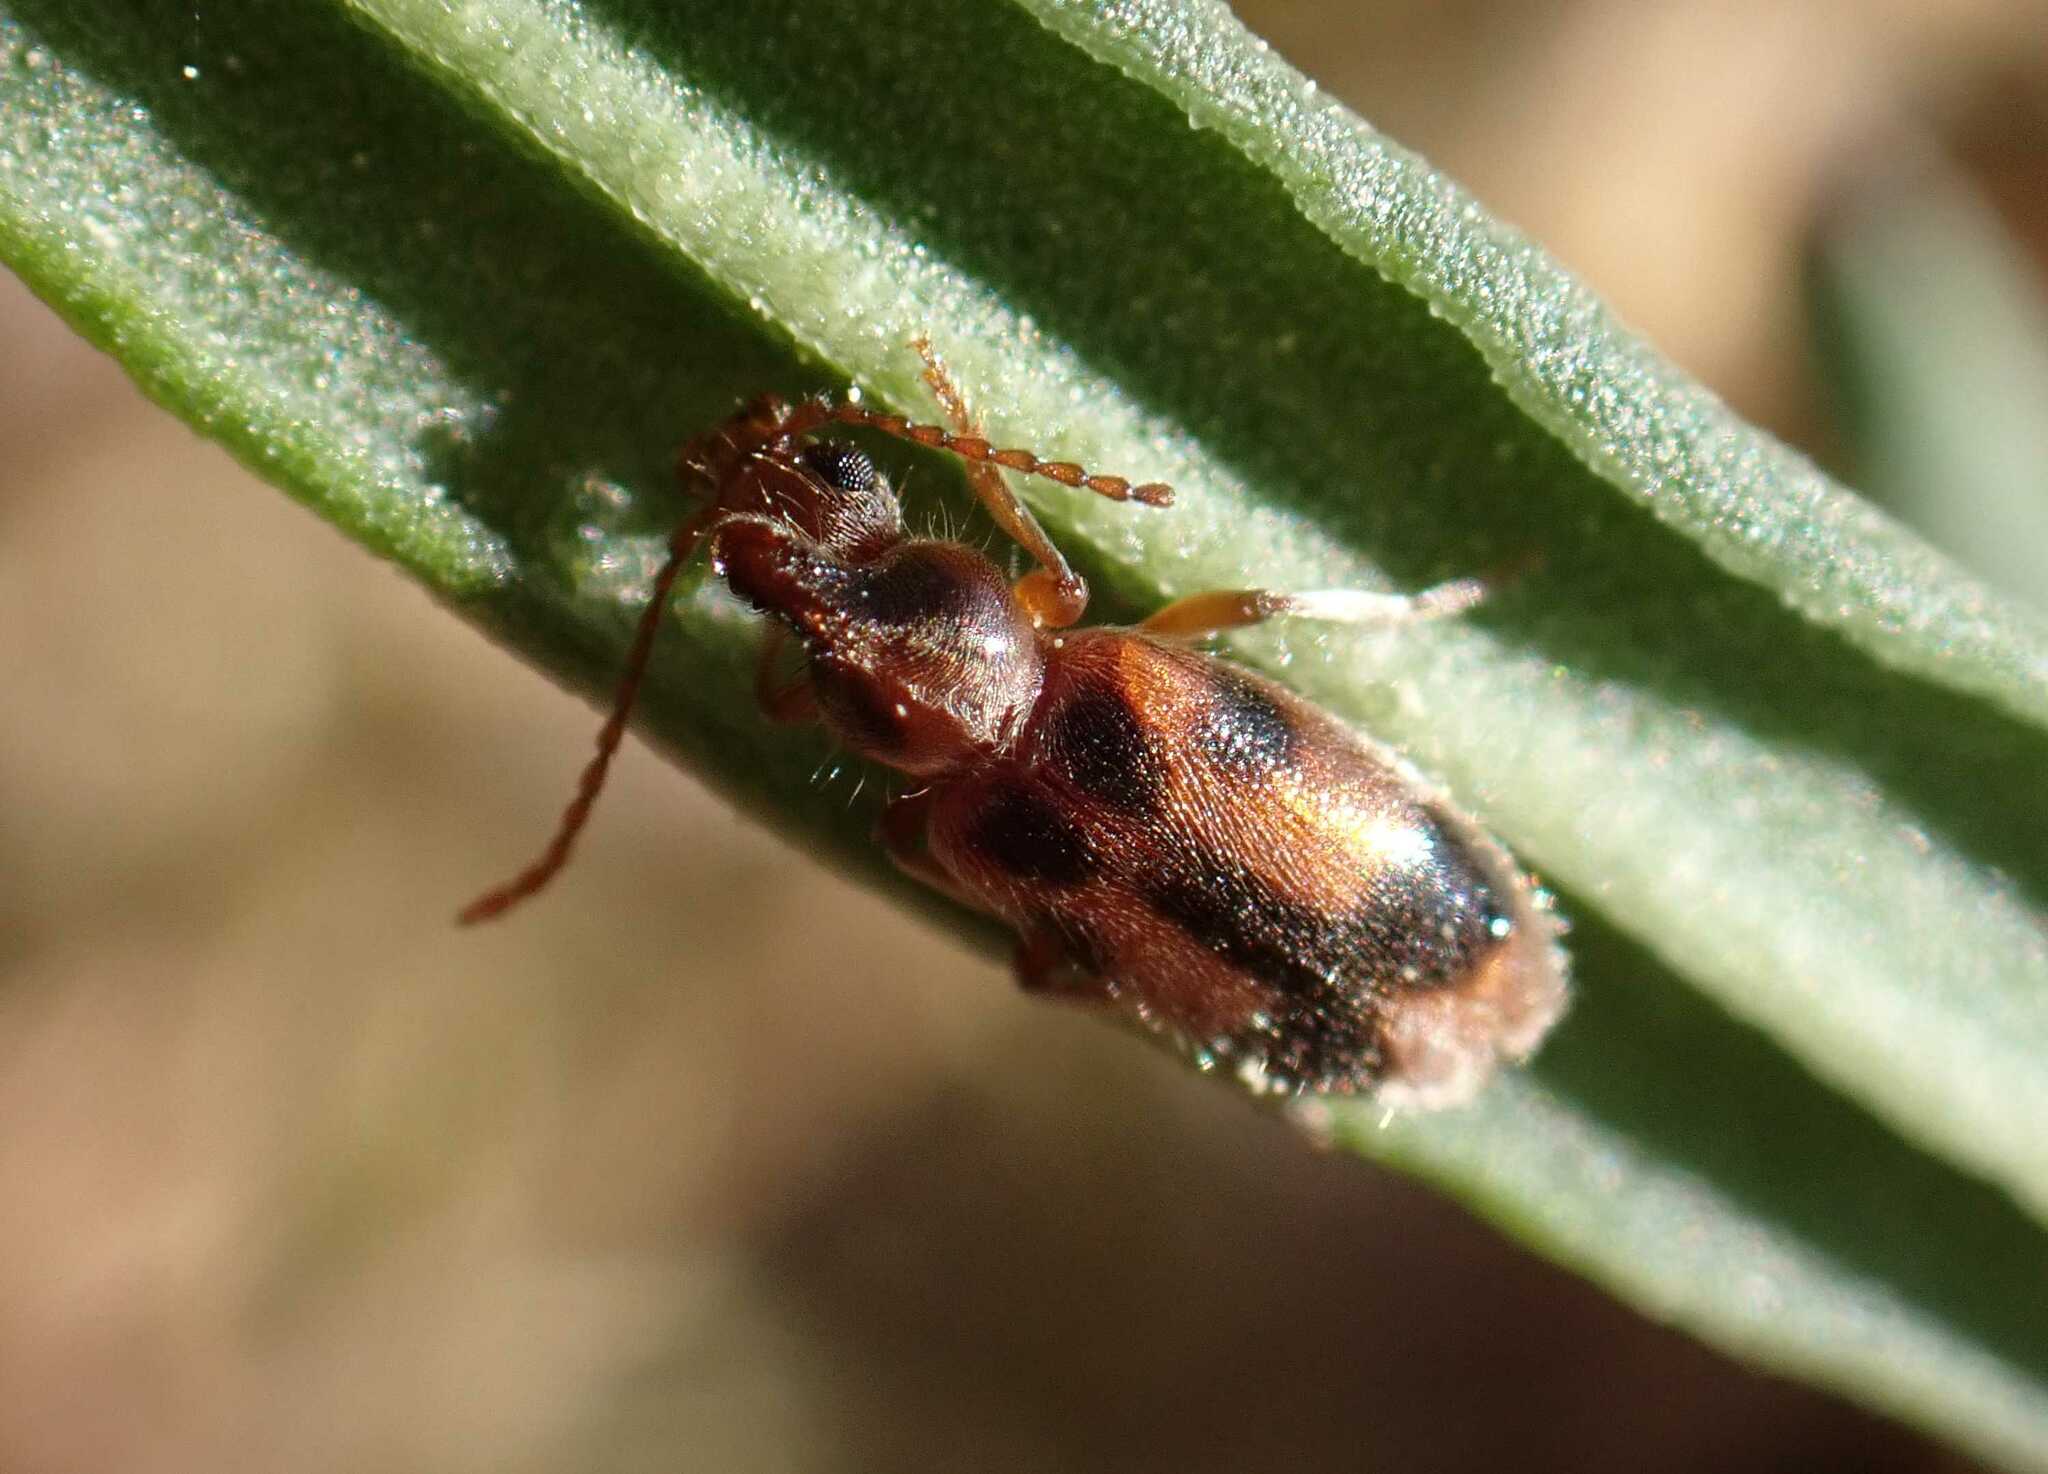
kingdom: Animalia
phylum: Arthropoda
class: Insecta
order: Coleoptera
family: Anthicidae
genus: Notoxus
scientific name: Notoxus monoceros
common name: Monoceros beetle
